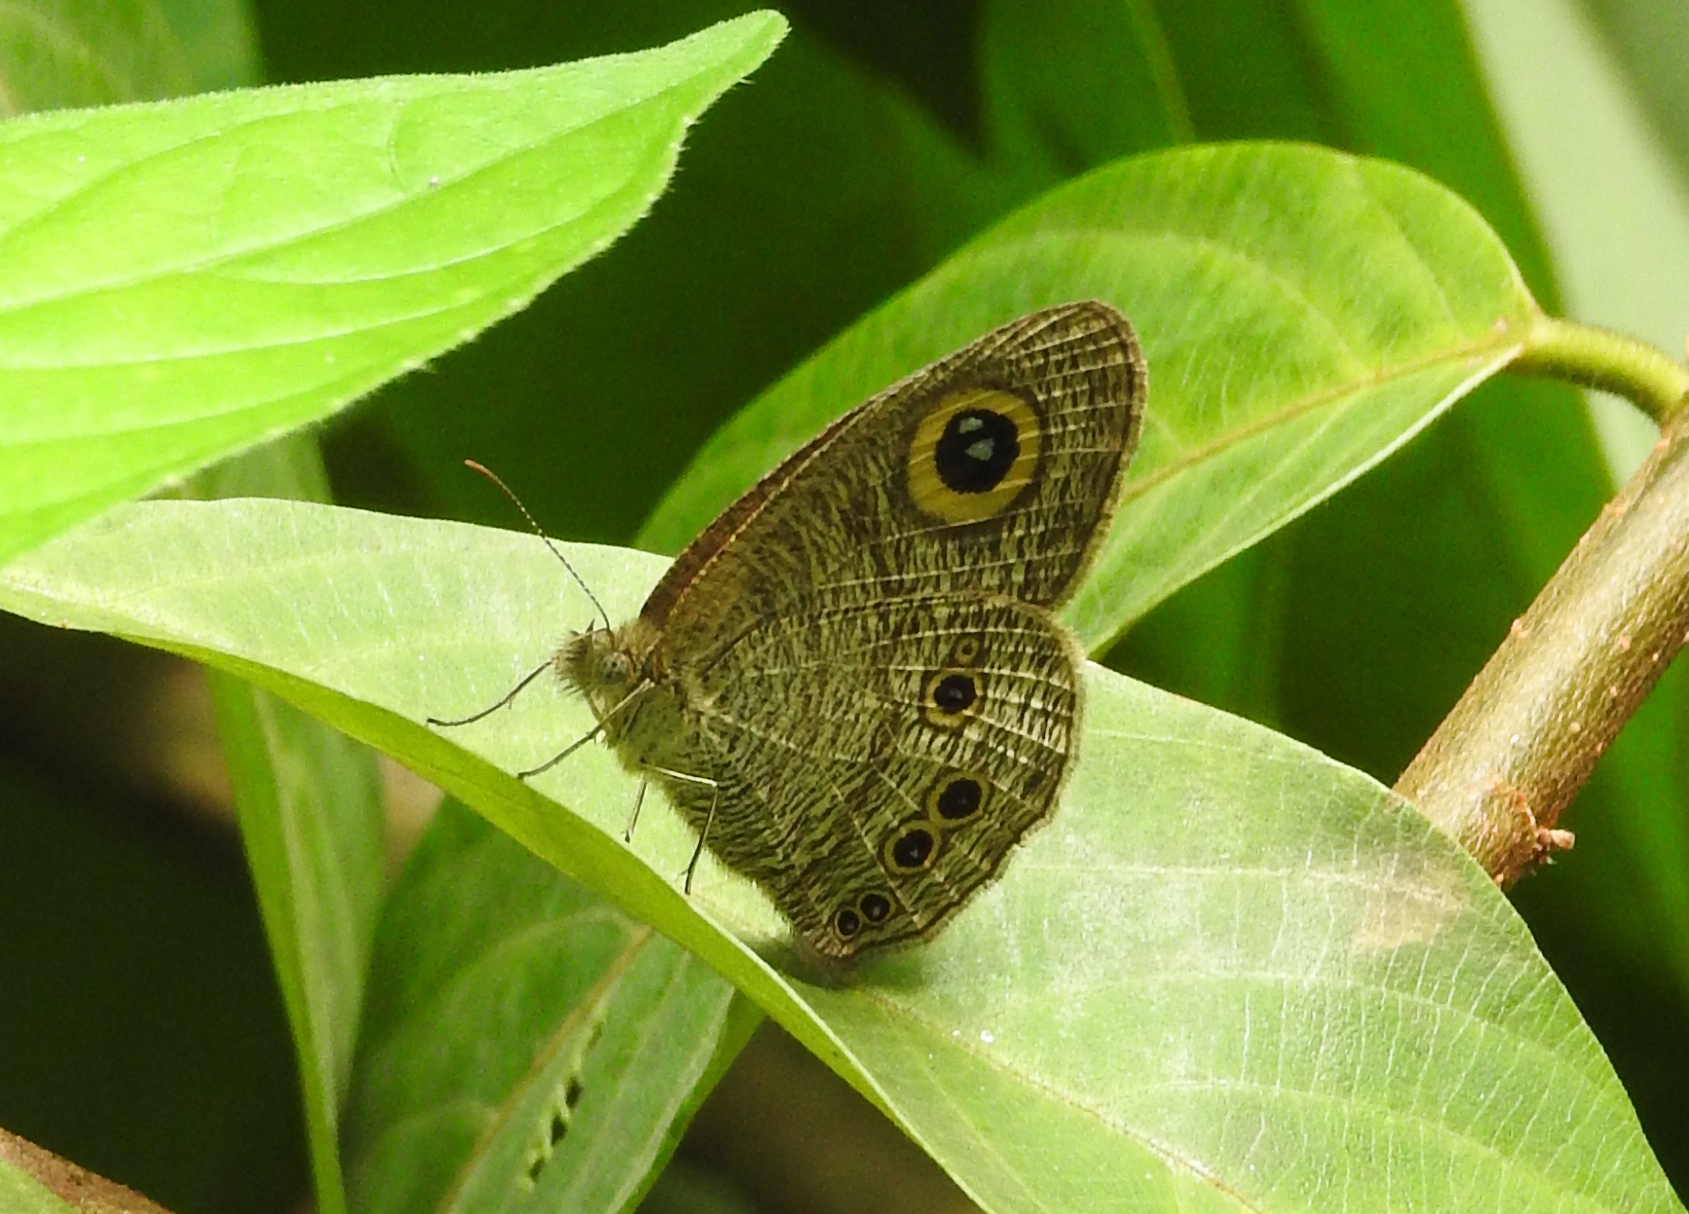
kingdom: Animalia
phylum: Arthropoda
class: Insecta
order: Lepidoptera
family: Nymphalidae
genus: Ypthima
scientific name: Ypthima baldus
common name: Common five-ring
